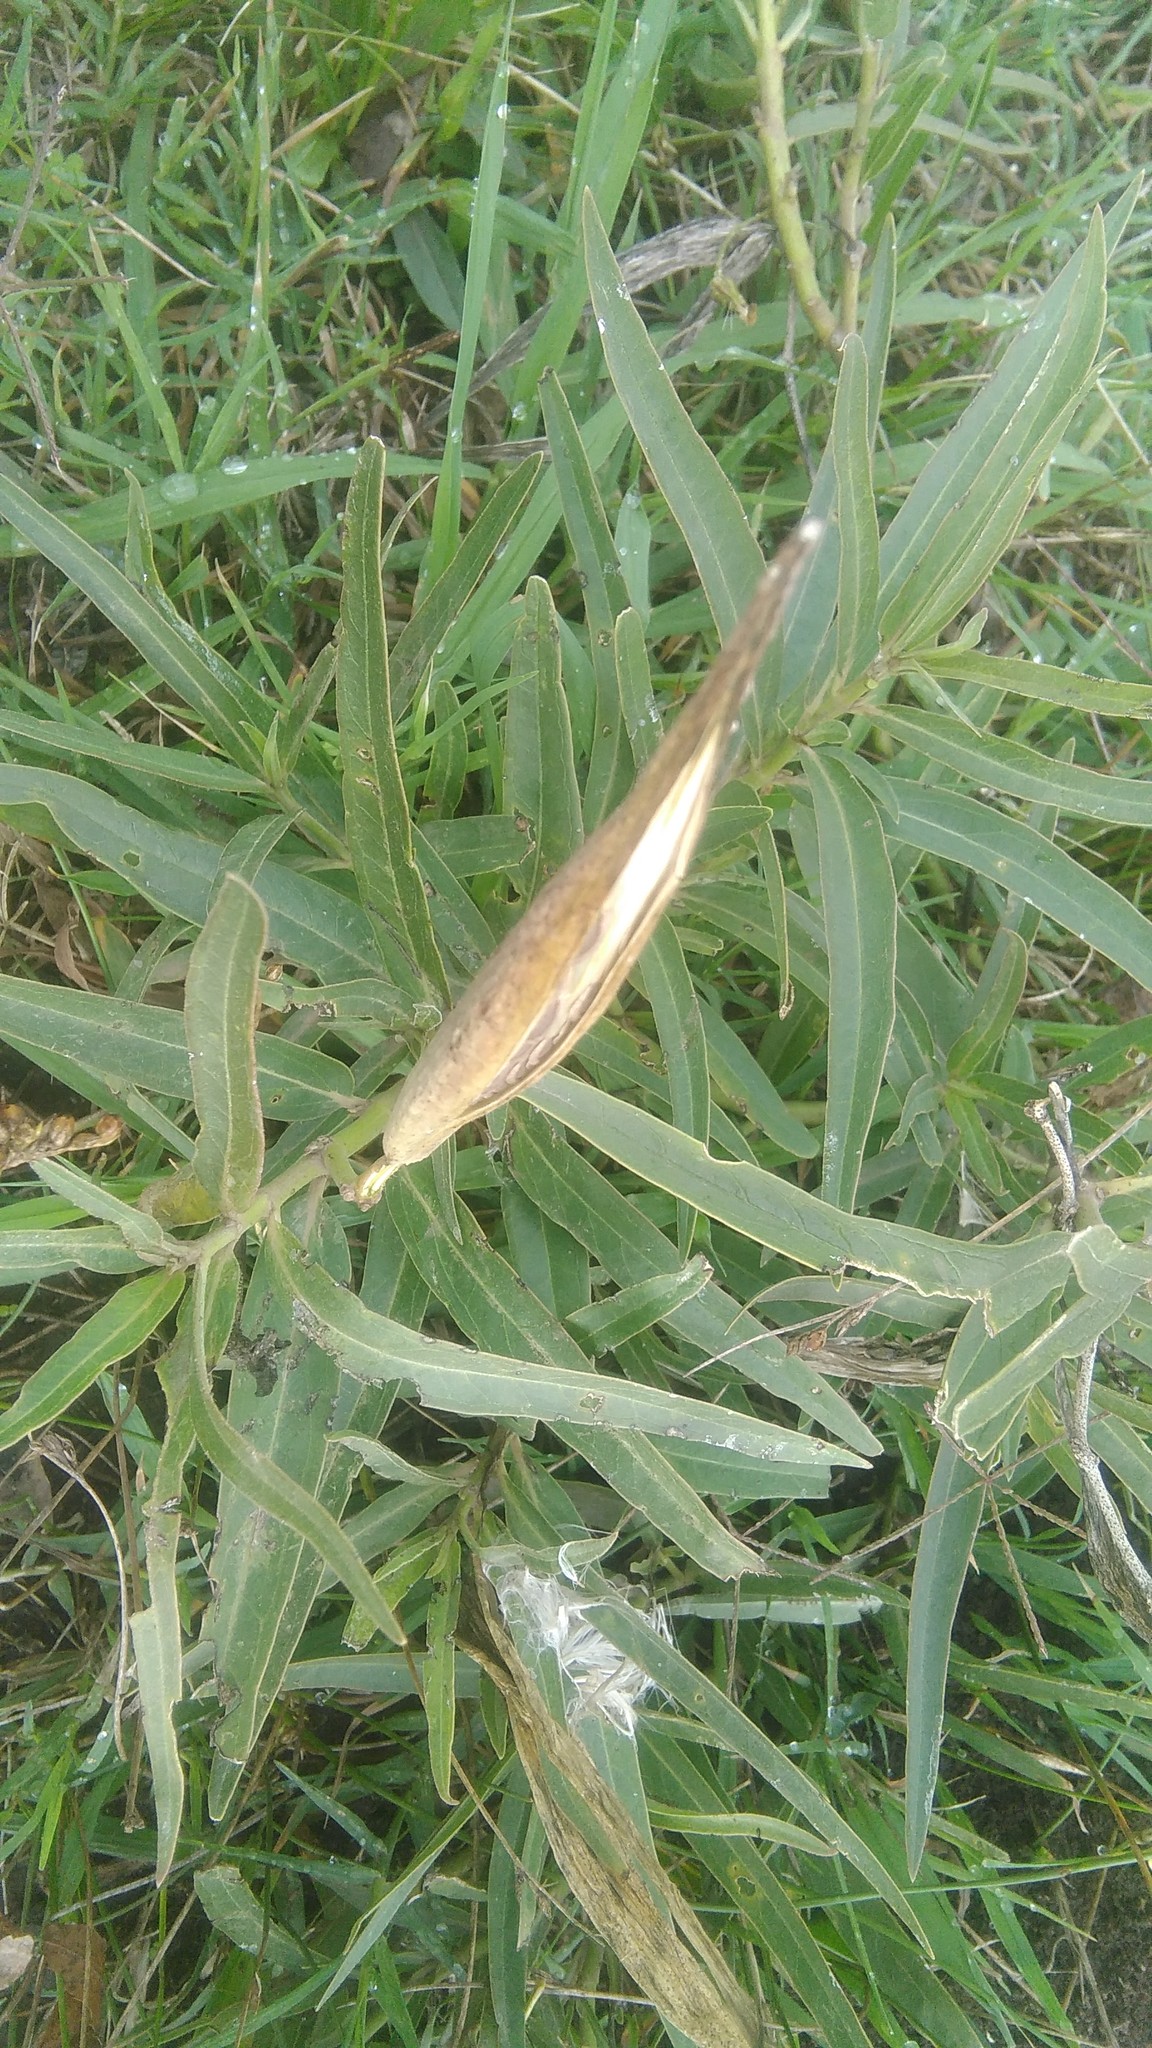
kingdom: Plantae
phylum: Tracheophyta
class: Magnoliopsida
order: Gentianales
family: Apocynaceae
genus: Asclepias
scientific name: Asclepias mellodora
